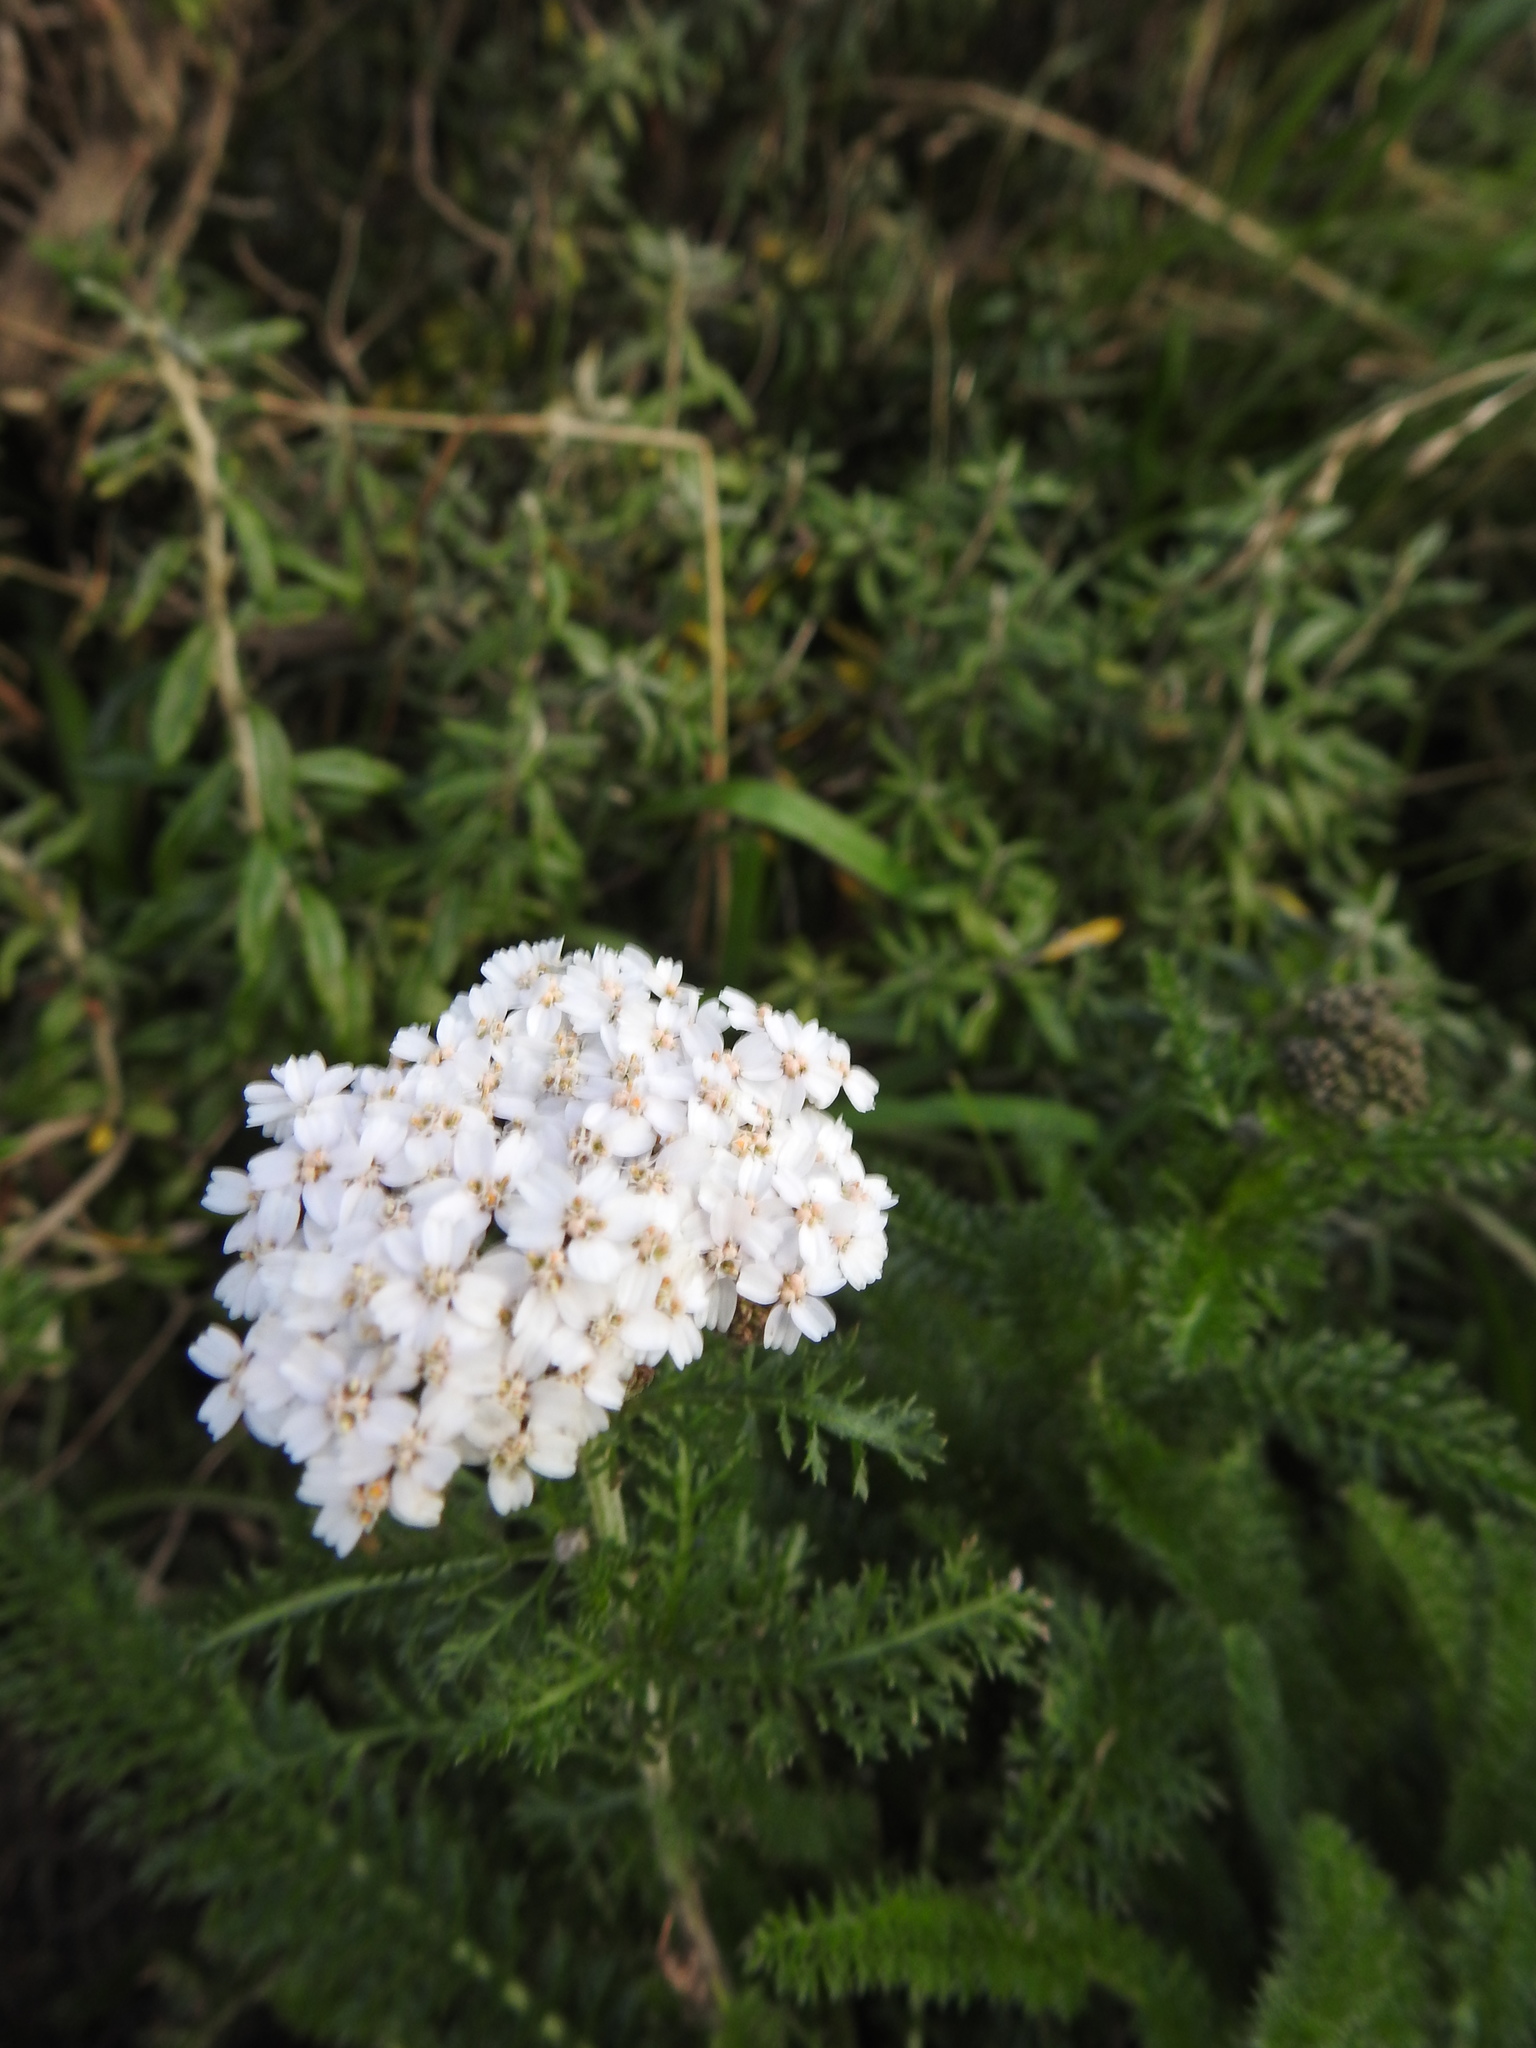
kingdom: Plantae
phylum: Tracheophyta
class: Magnoliopsida
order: Asterales
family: Asteraceae
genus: Achillea
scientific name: Achillea millefolium
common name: Yarrow
